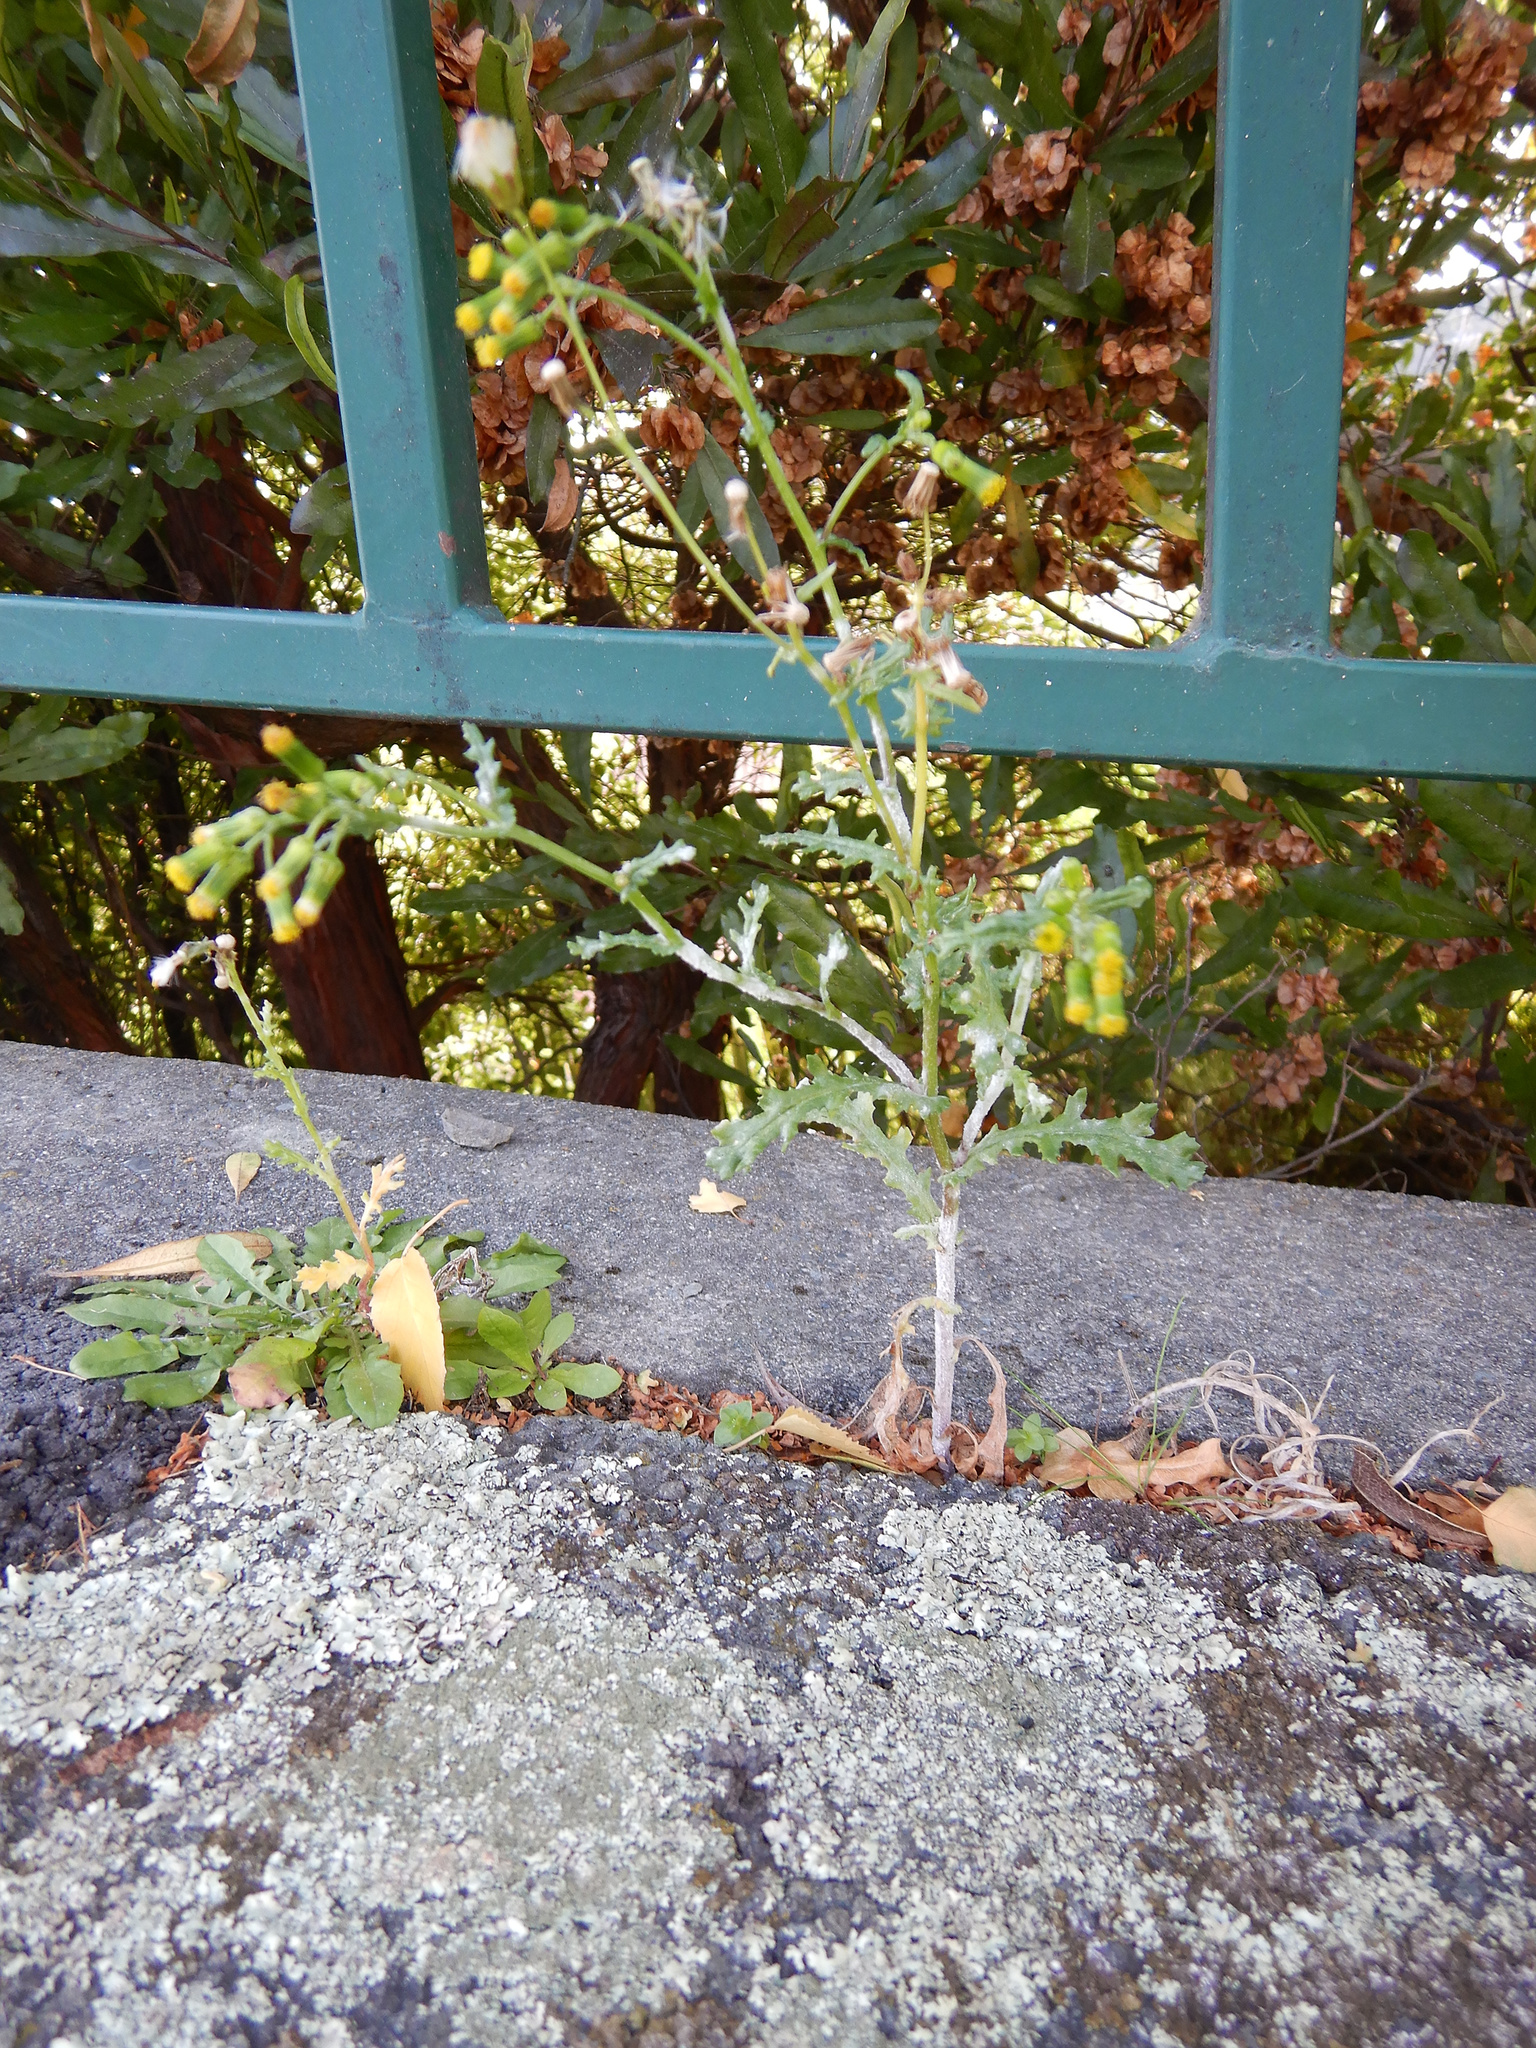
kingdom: Plantae
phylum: Tracheophyta
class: Magnoliopsida
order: Asterales
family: Asteraceae
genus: Senecio
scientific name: Senecio vulgaris
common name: Old-man-in-the-spring
